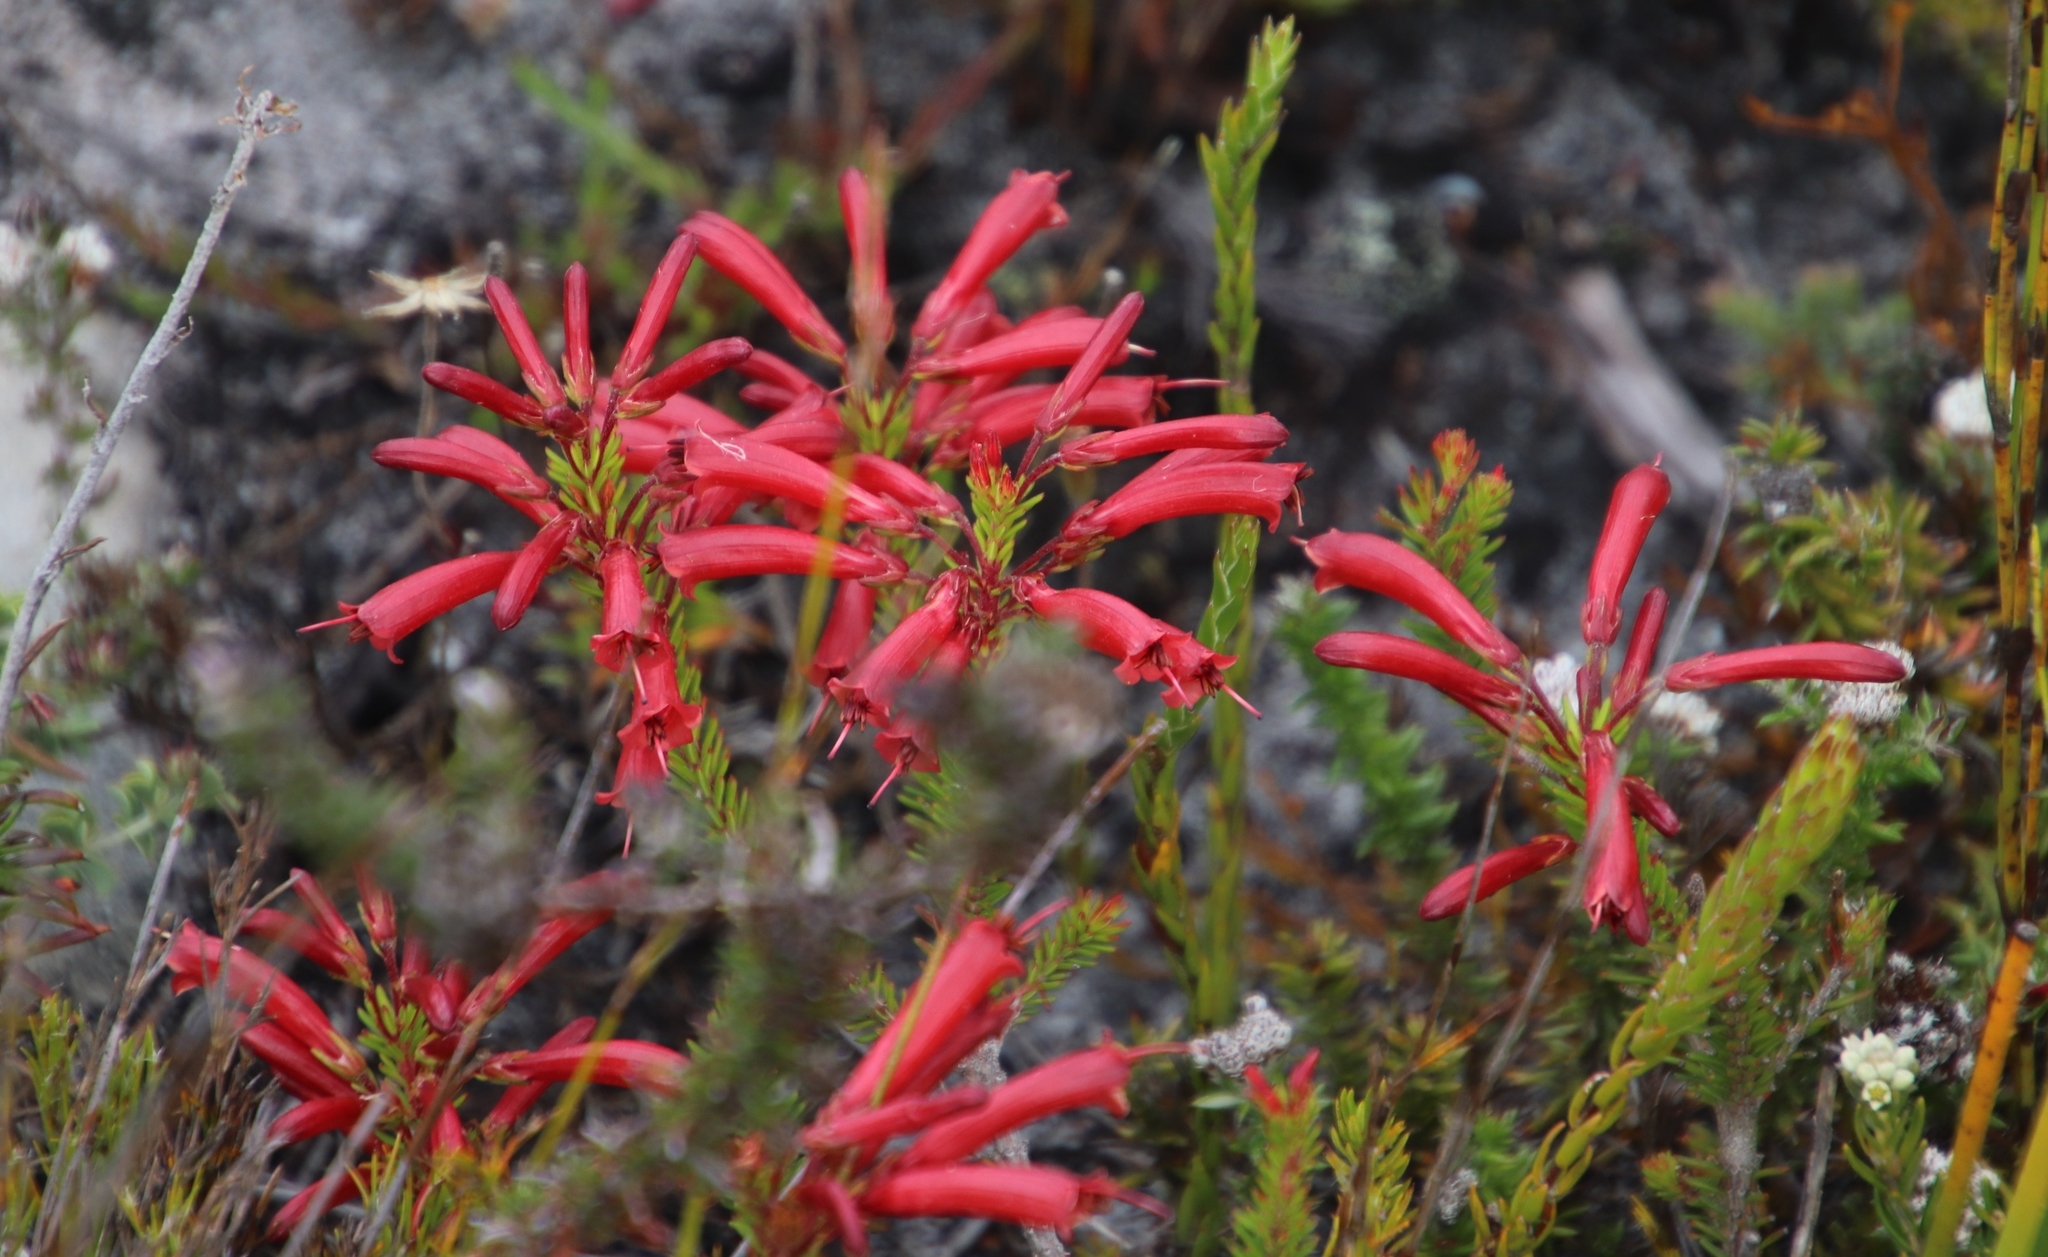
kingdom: Plantae
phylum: Tracheophyta
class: Magnoliopsida
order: Ericales
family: Ericaceae
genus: Erica
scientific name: Erica nevillei
